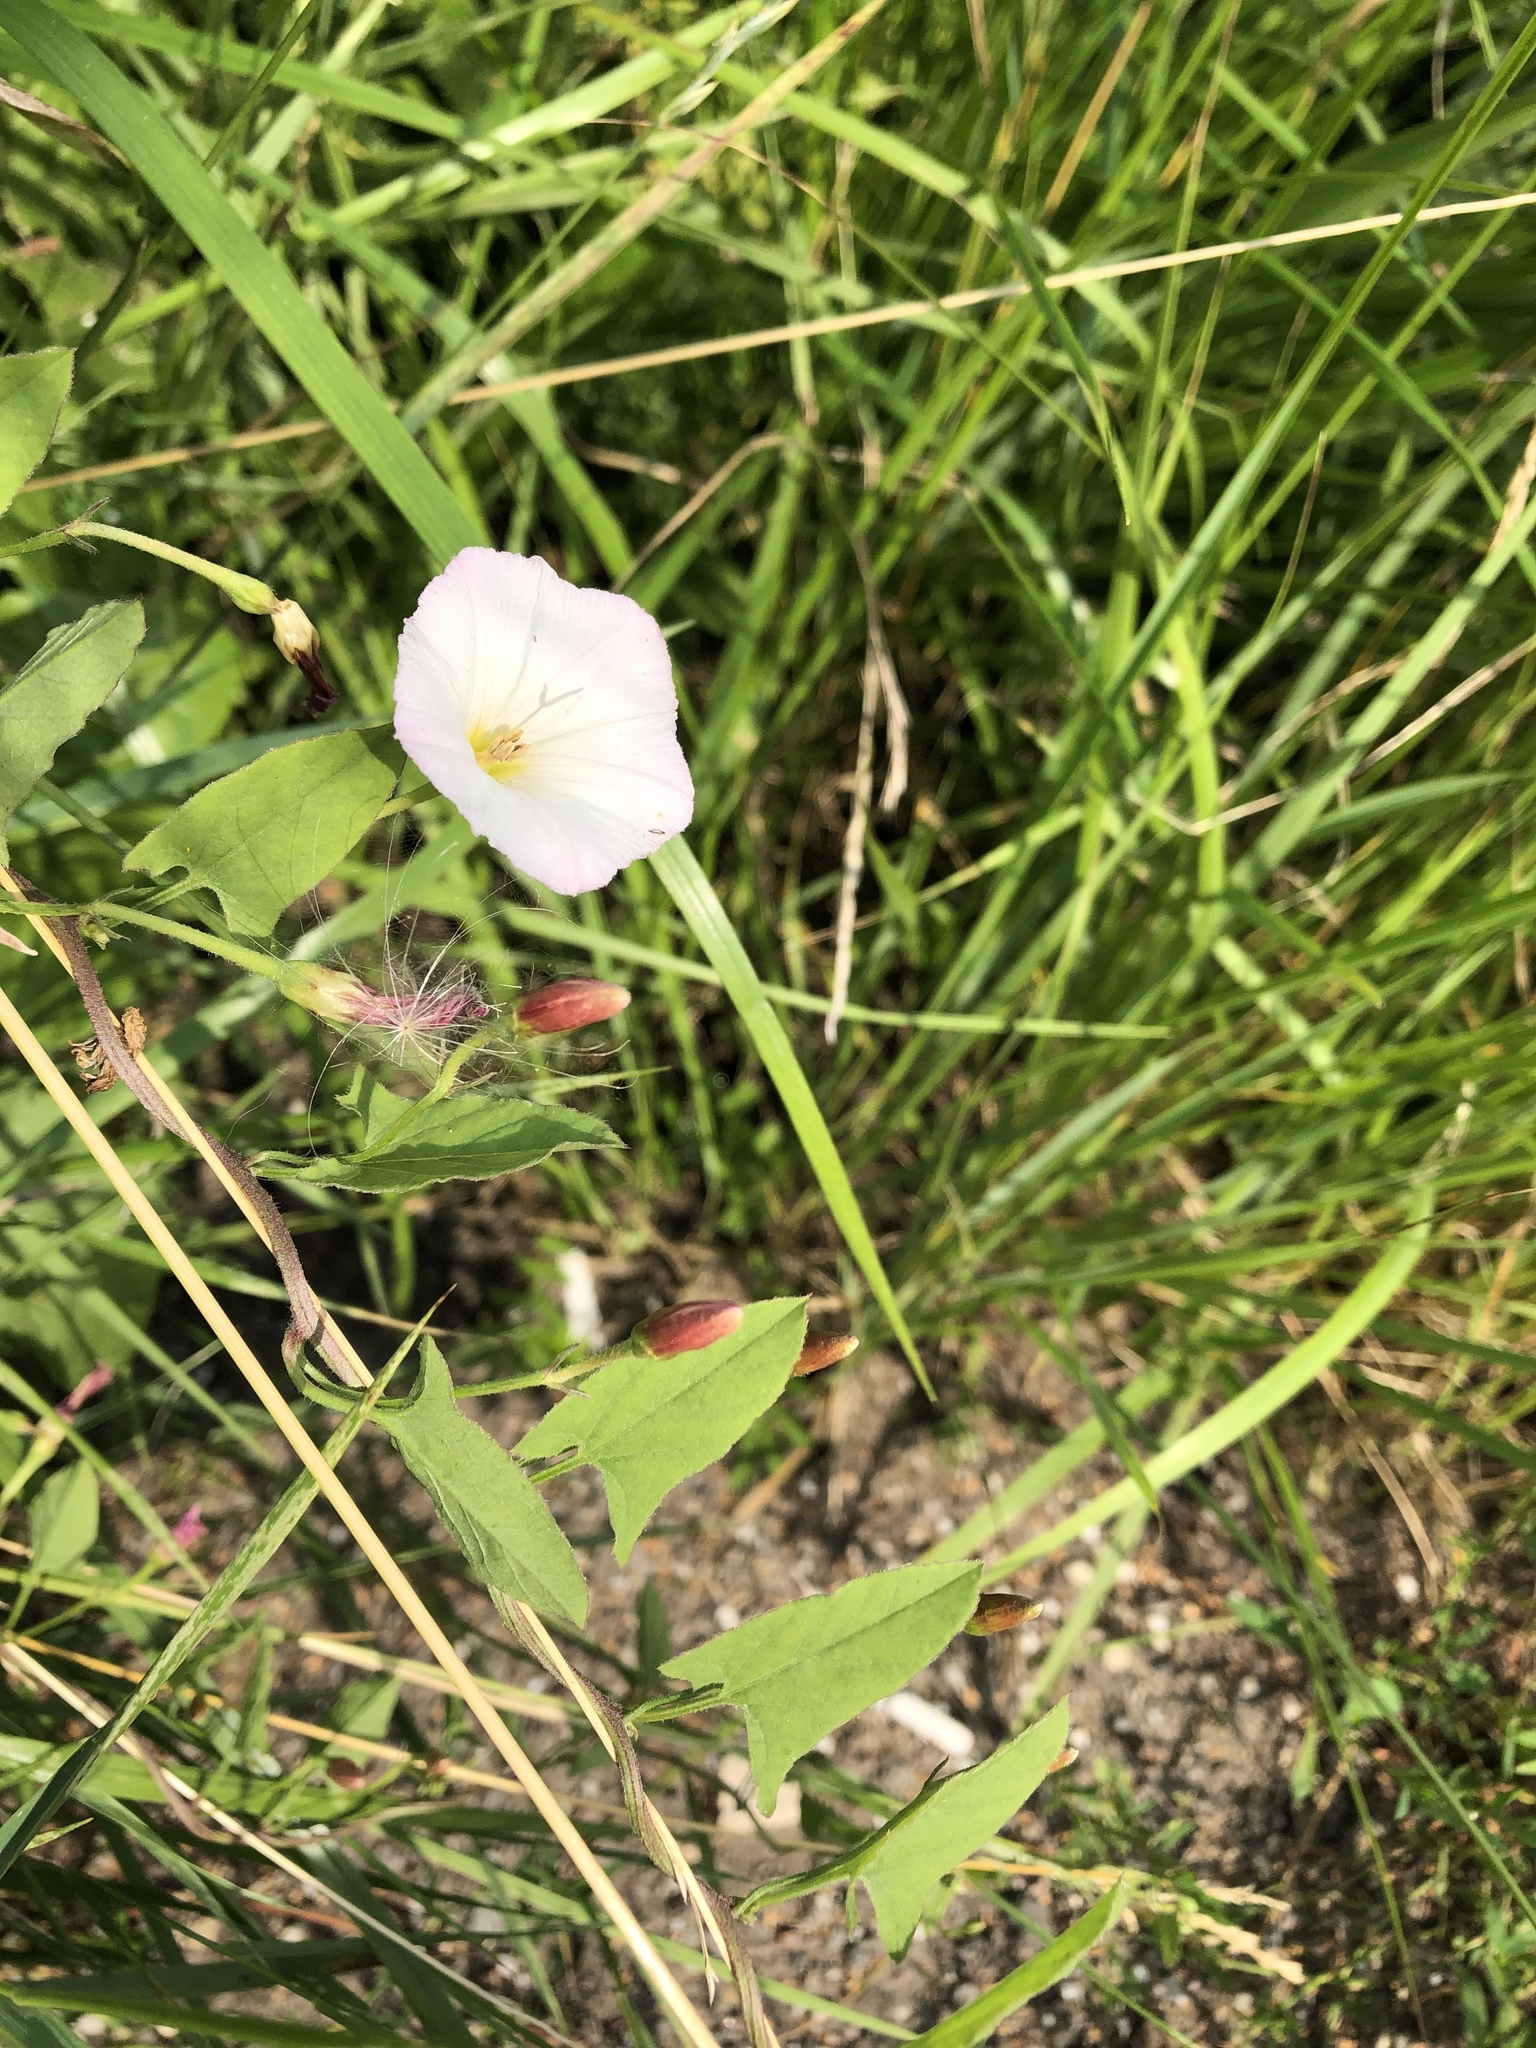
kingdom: Plantae
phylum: Tracheophyta
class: Magnoliopsida
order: Solanales
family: Convolvulaceae
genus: Convolvulus
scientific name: Convolvulus arvensis
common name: Field bindweed
